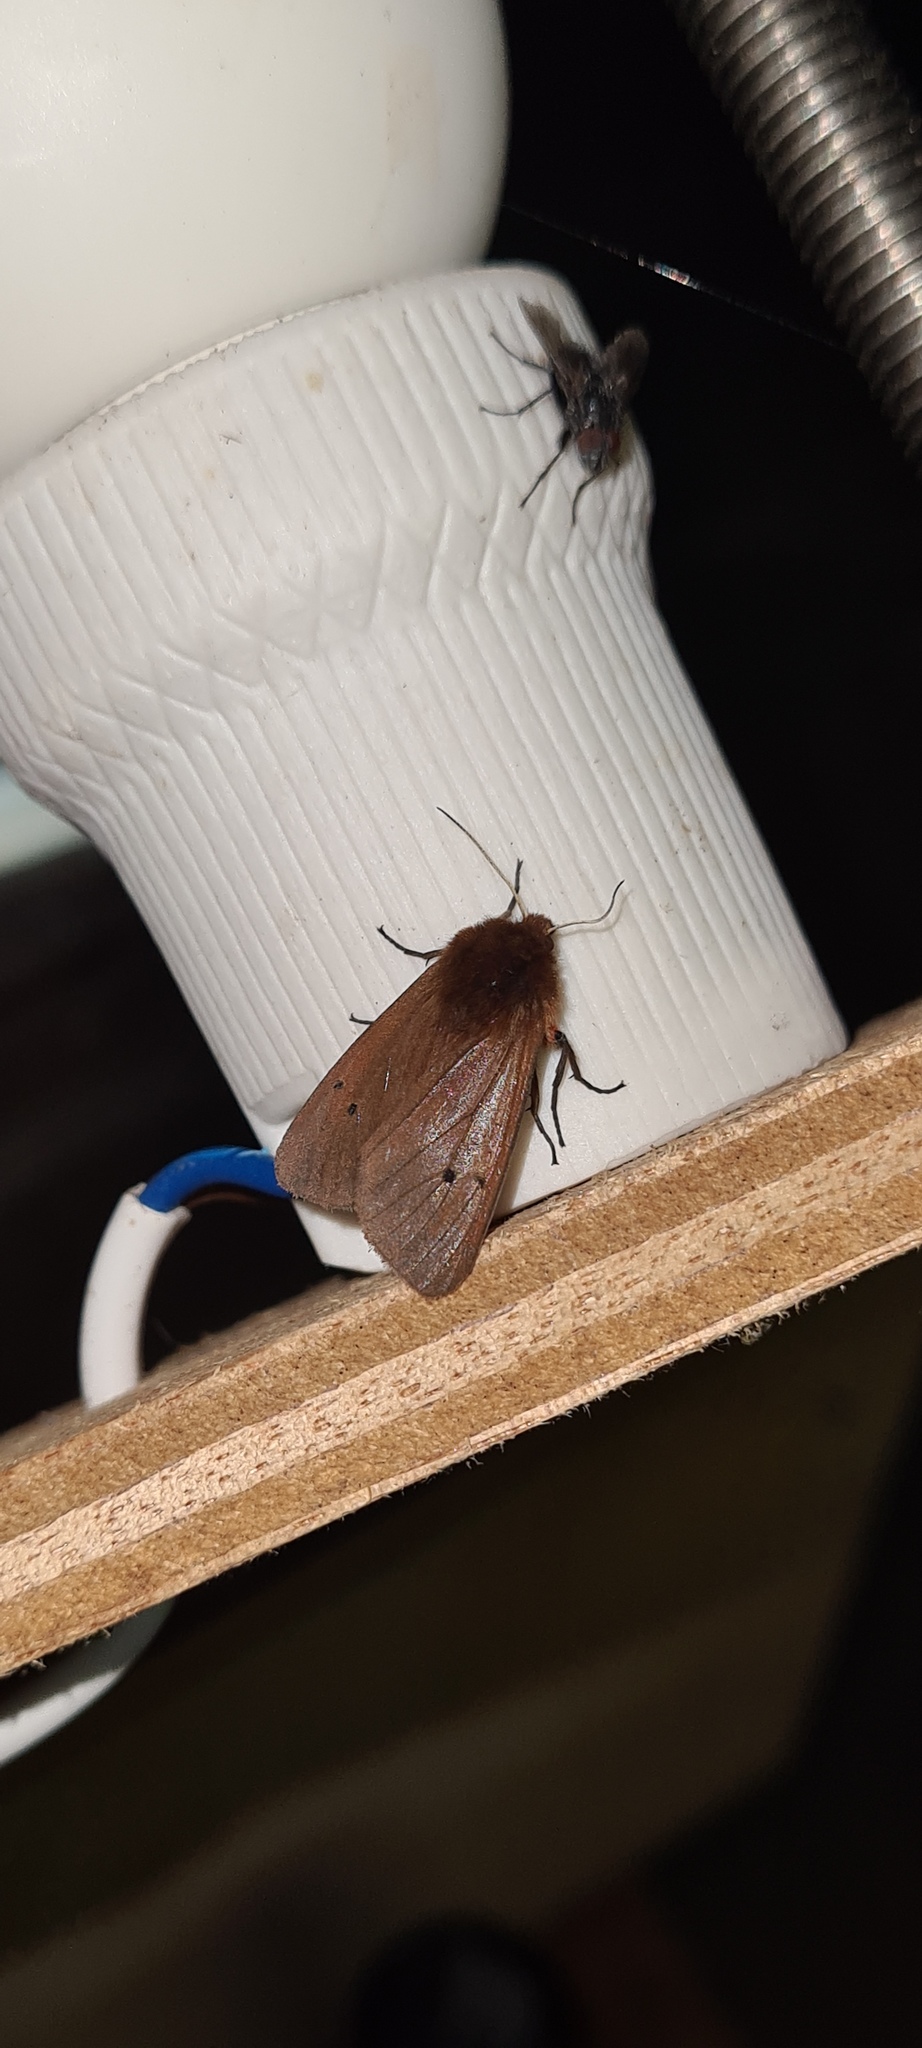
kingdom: Animalia
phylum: Arthropoda
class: Insecta
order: Lepidoptera
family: Erebidae
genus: Phragmatobia
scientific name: Phragmatobia fuliginosa
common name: Ruby tiger
